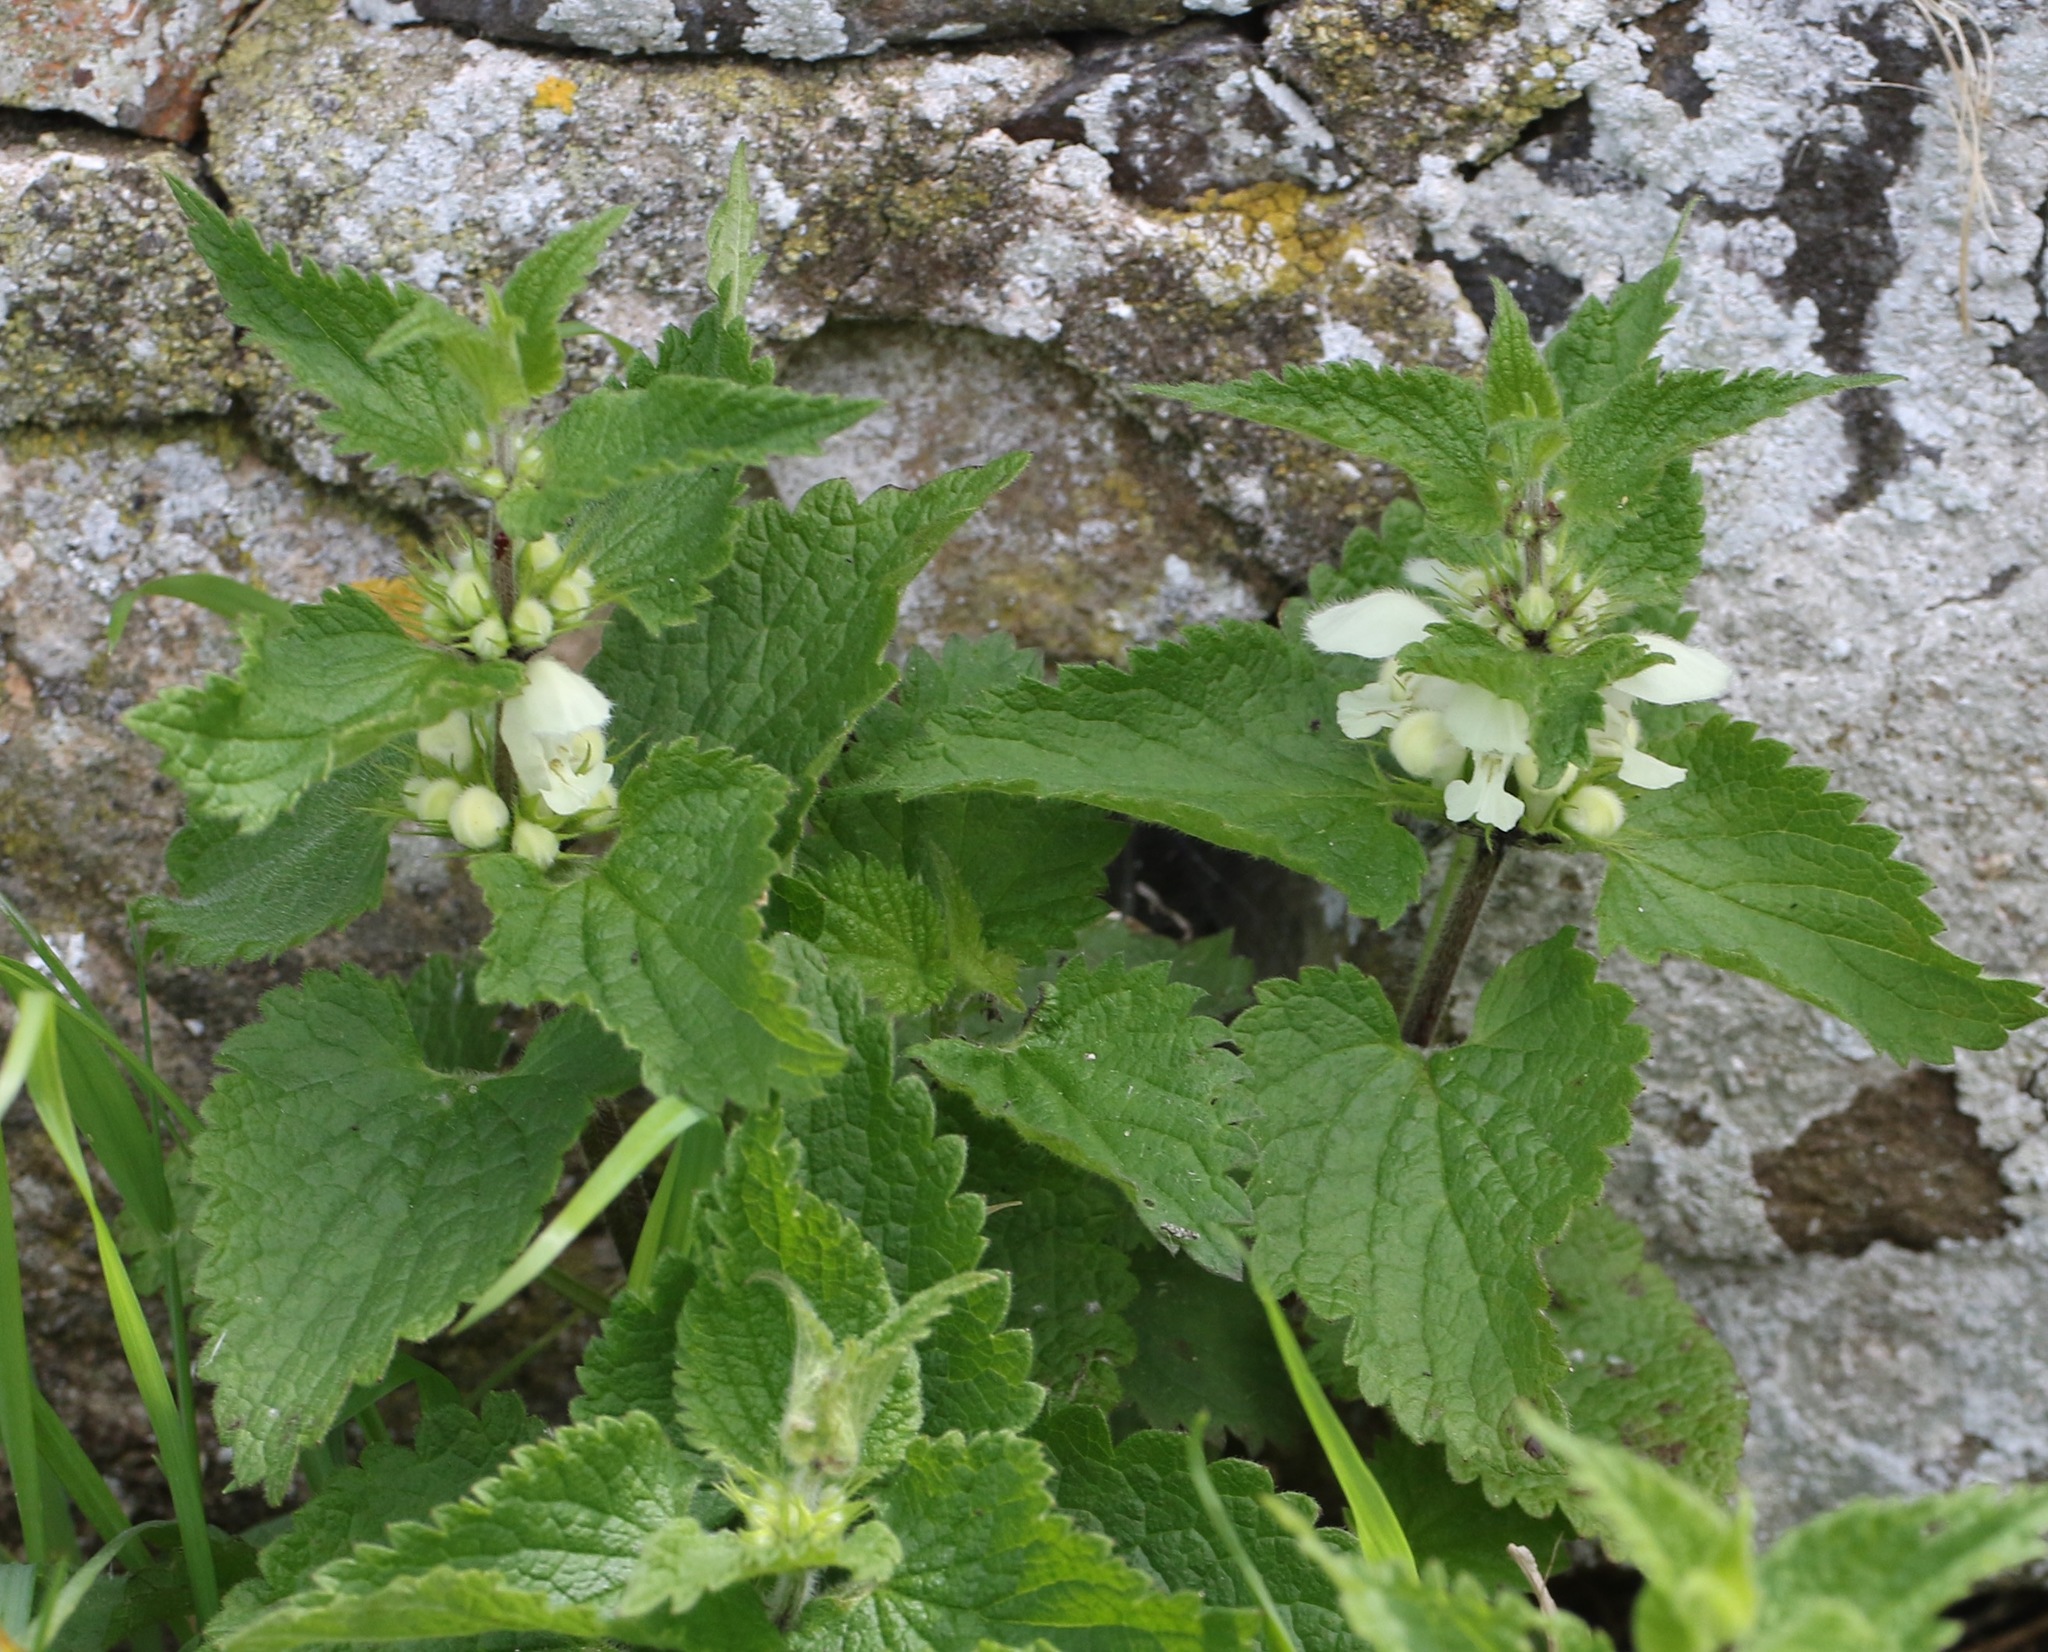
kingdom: Plantae
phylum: Tracheophyta
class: Magnoliopsida
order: Lamiales
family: Lamiaceae
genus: Lamium
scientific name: Lamium album
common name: White dead-nettle
